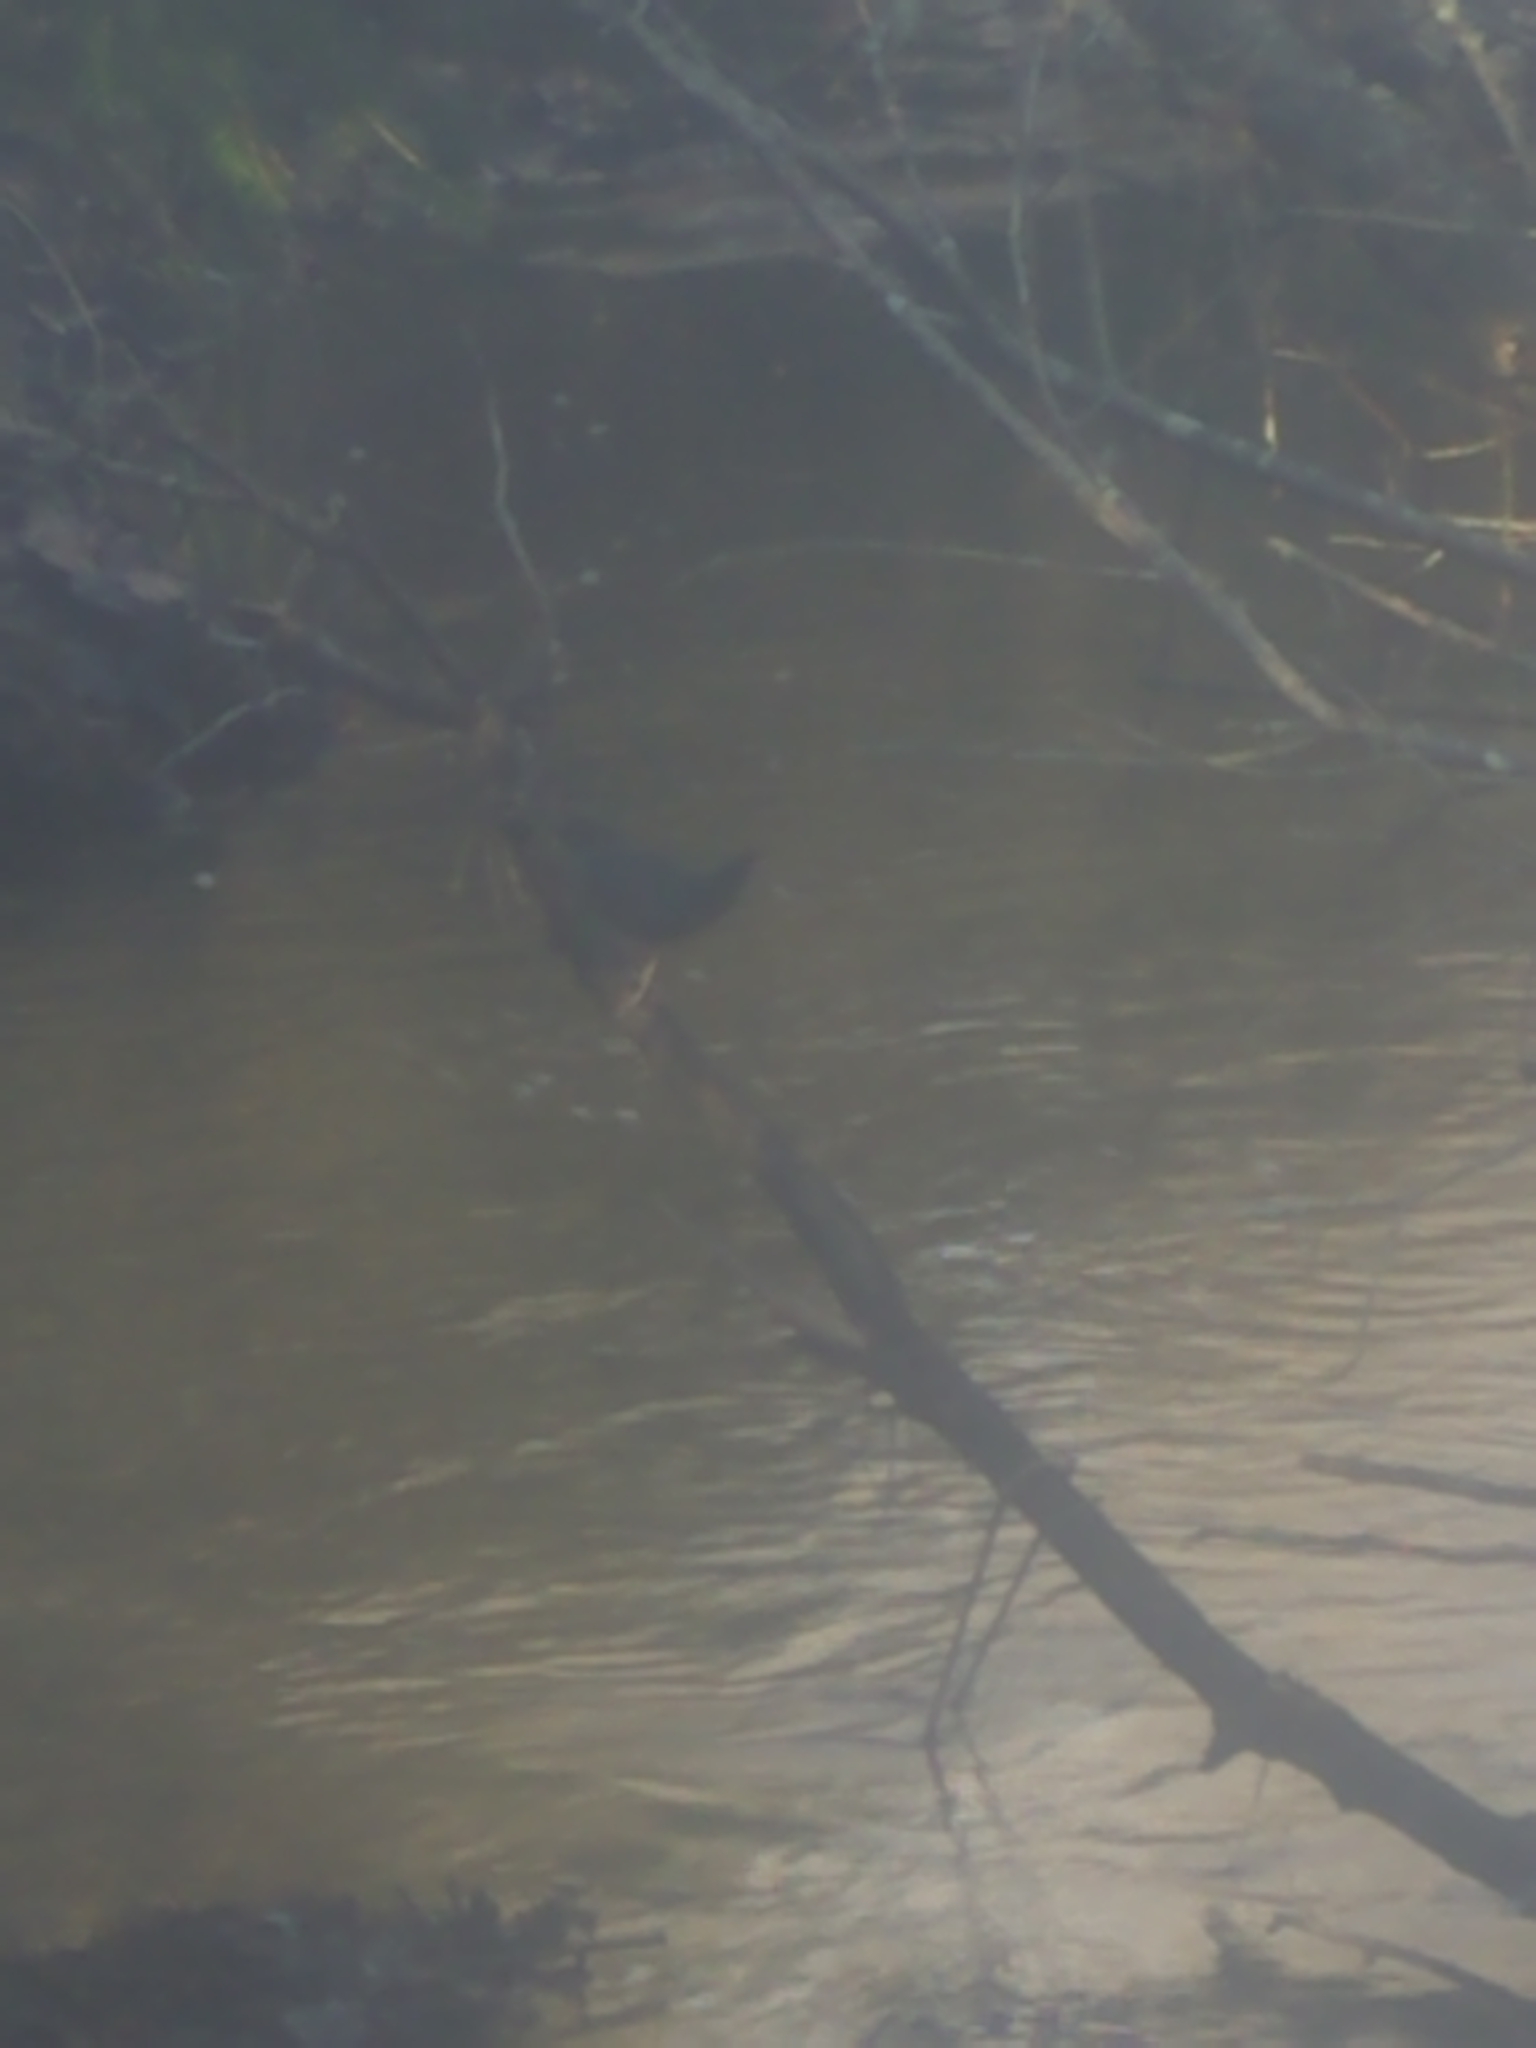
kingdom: Animalia
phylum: Chordata
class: Aves
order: Passeriformes
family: Cinclidae
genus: Cinclus
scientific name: Cinclus mexicanus
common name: American dipper
